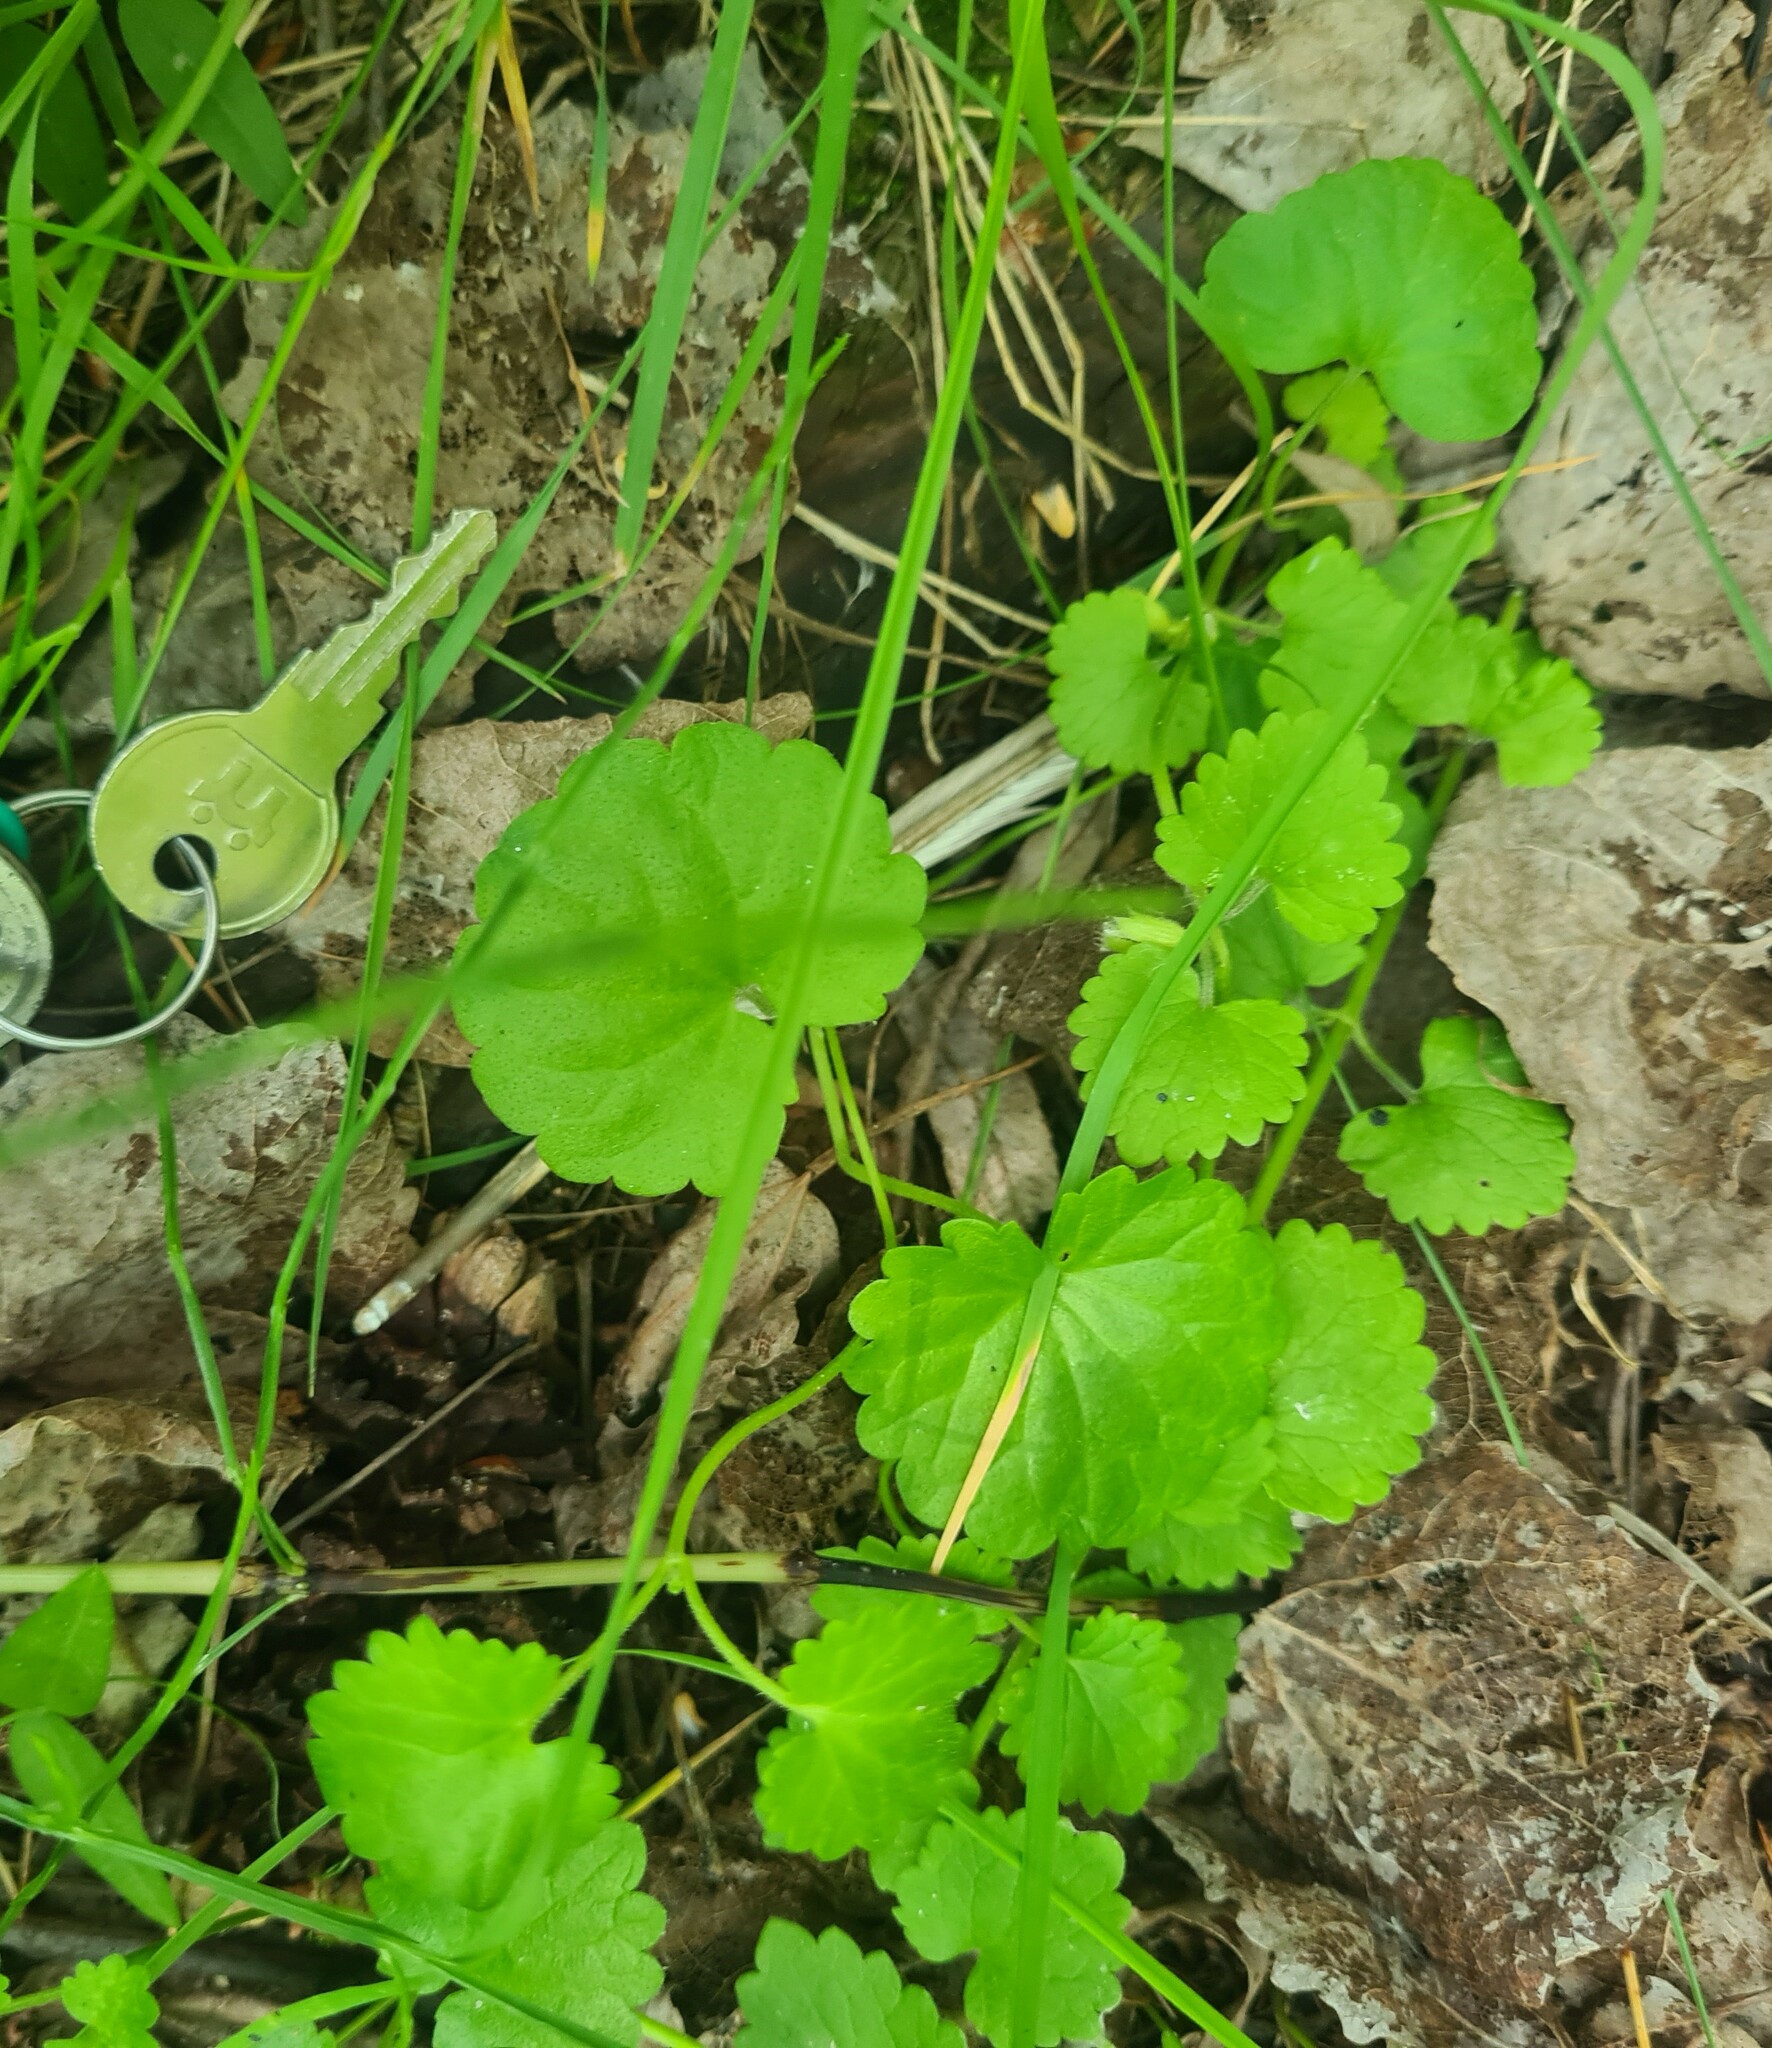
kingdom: Plantae
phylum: Tracheophyta
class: Magnoliopsida
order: Lamiales
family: Lamiaceae
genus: Glechoma
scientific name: Glechoma hederacea
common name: Ground ivy
